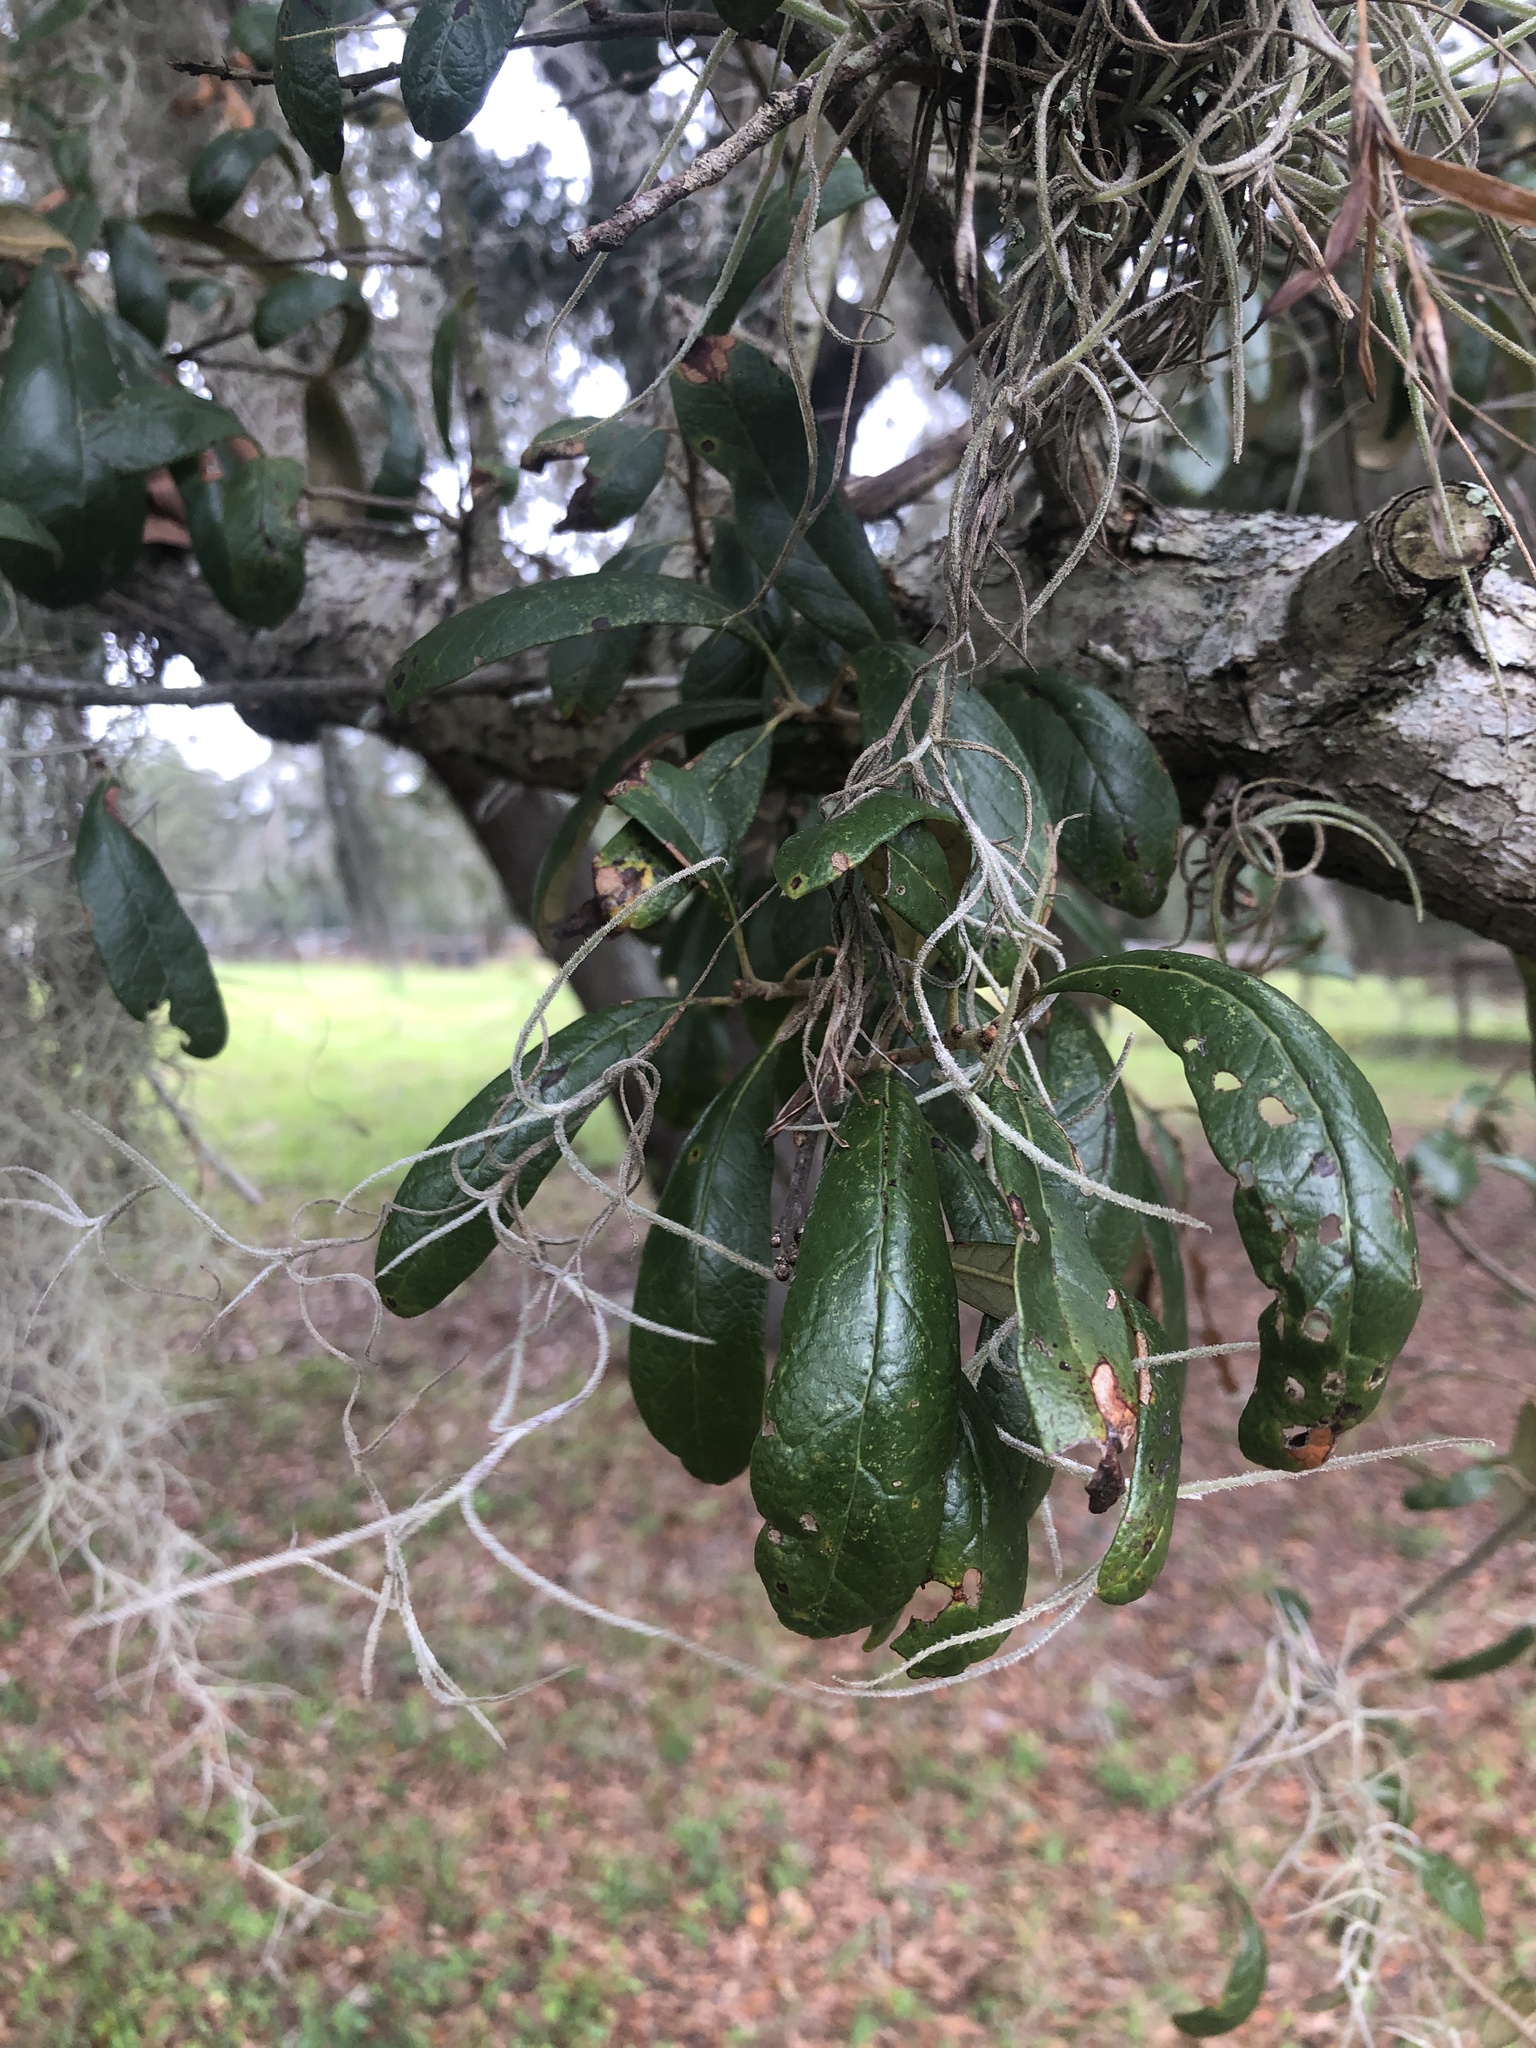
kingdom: Plantae
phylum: Tracheophyta
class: Magnoliopsida
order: Fagales
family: Fagaceae
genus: Quercus
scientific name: Quercus geminata
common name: Sand live oak
